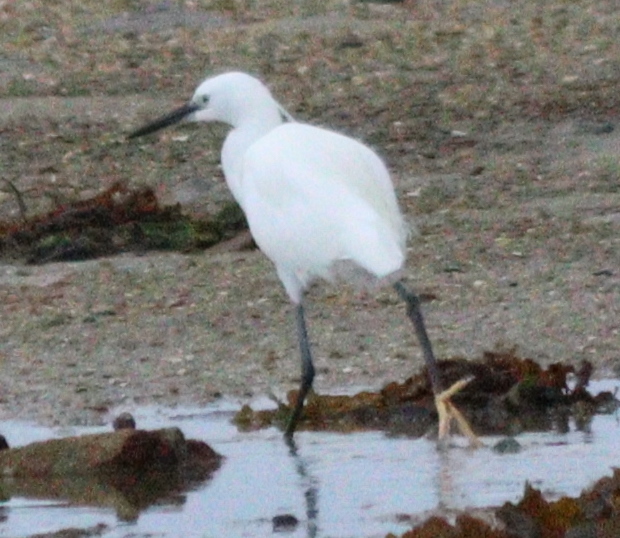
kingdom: Animalia
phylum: Chordata
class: Aves
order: Pelecaniformes
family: Ardeidae
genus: Egretta
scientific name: Egretta garzetta
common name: Little egret
